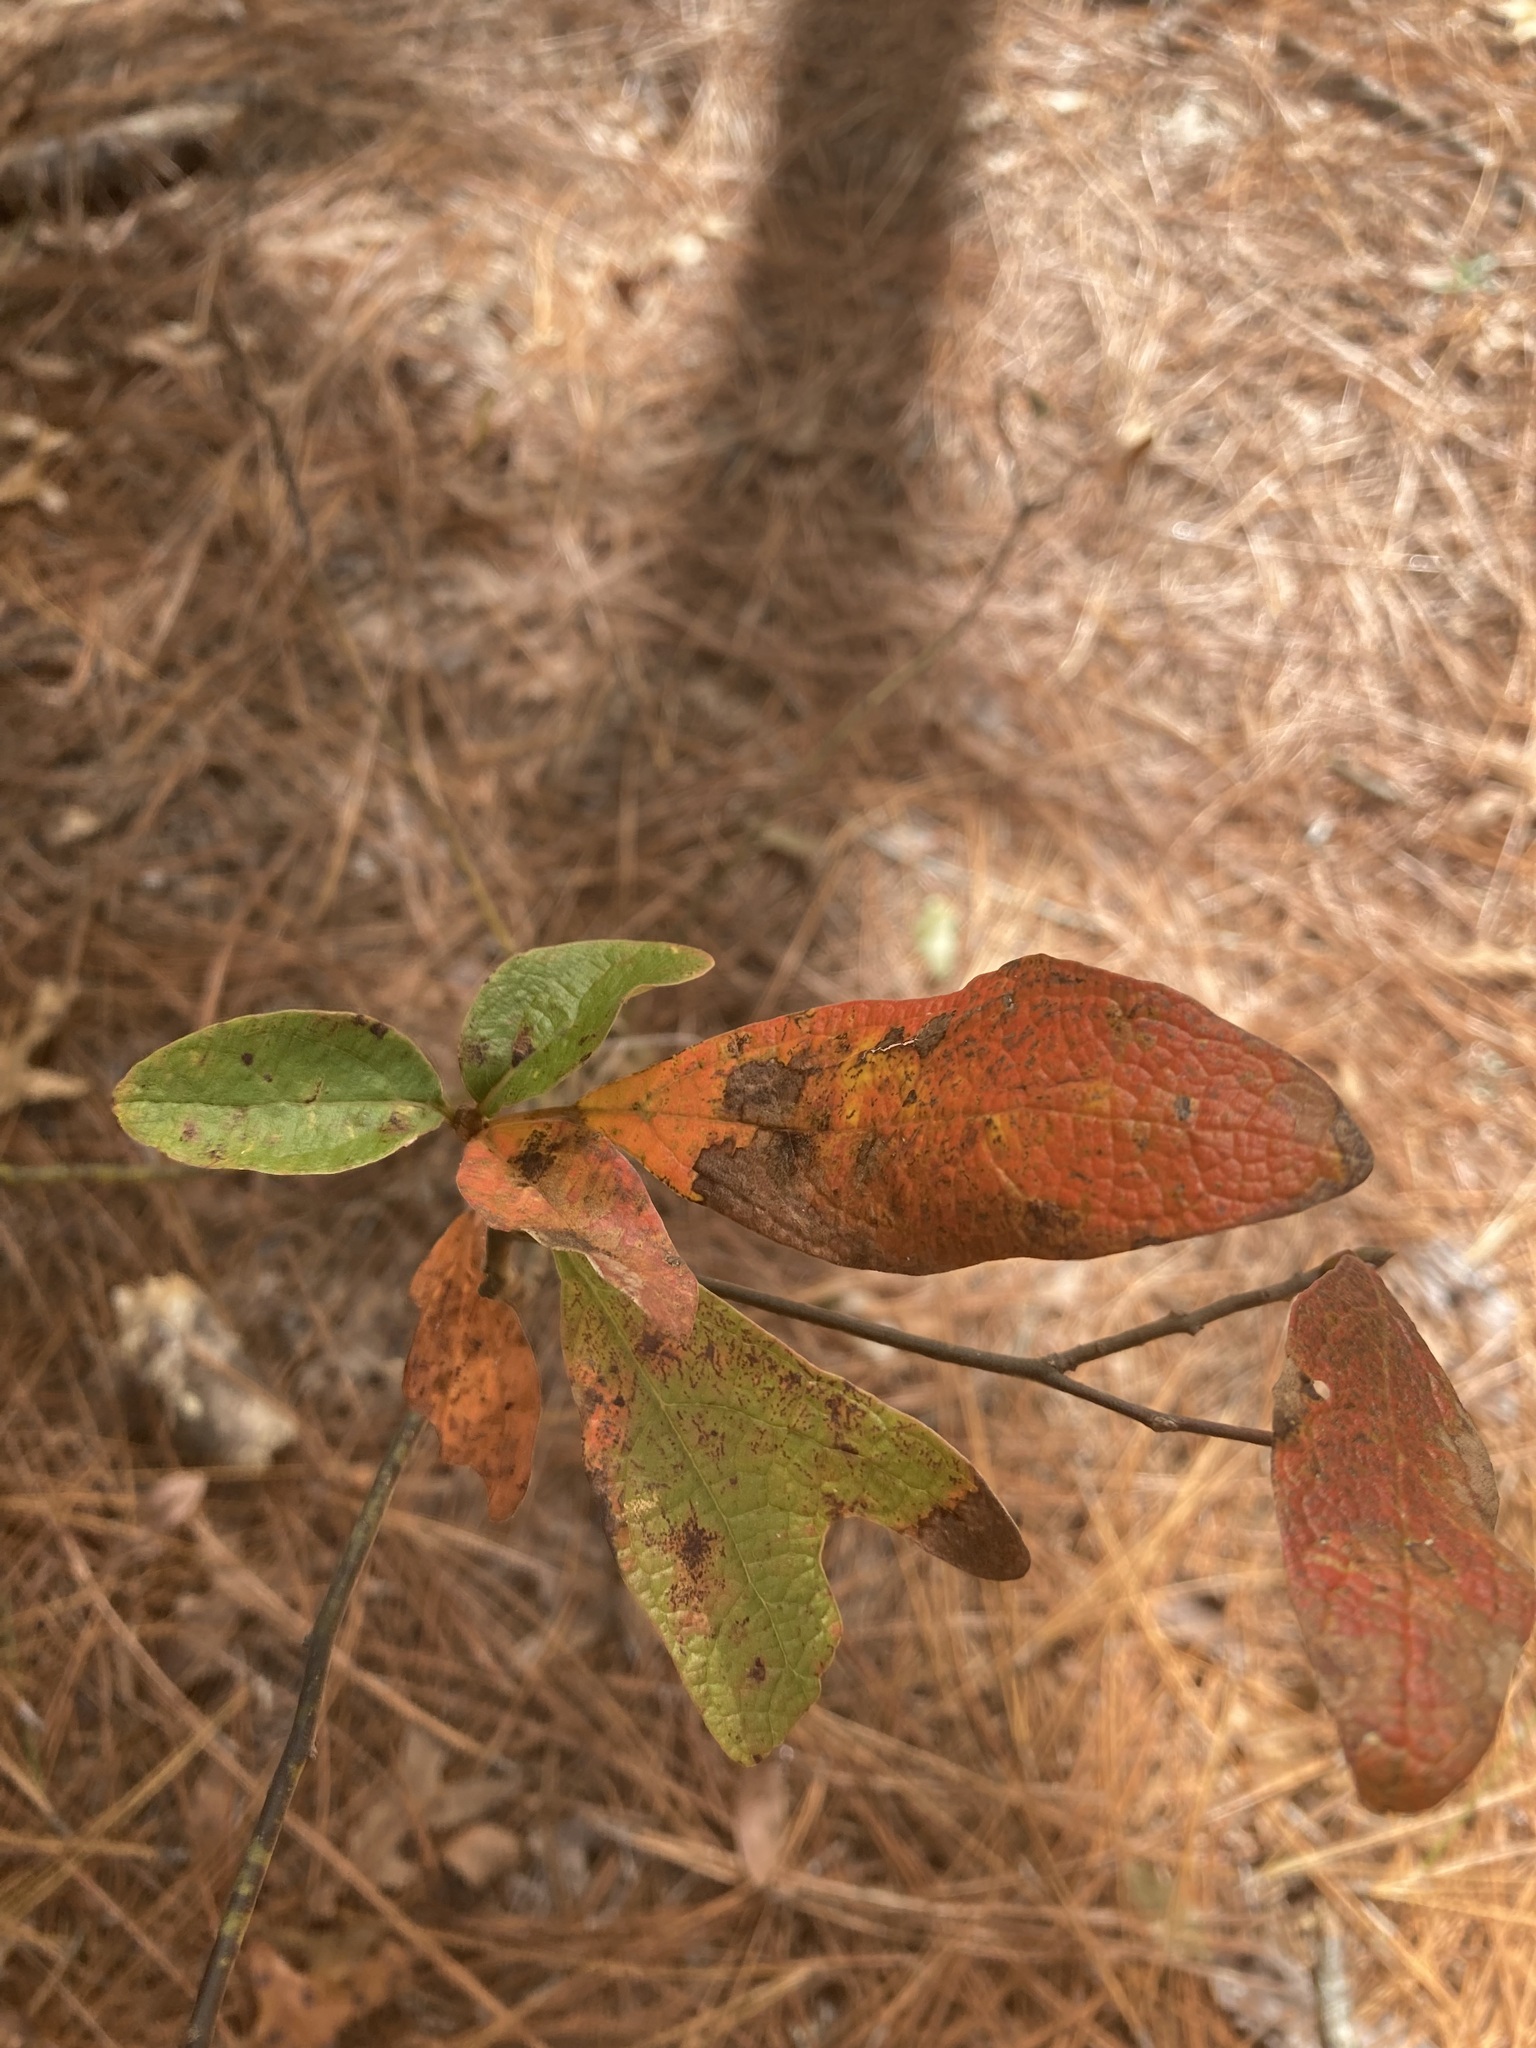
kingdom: Plantae
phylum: Tracheophyta
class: Magnoliopsida
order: Laurales
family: Lauraceae
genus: Sassafras
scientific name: Sassafras albidum
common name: Sassafras
